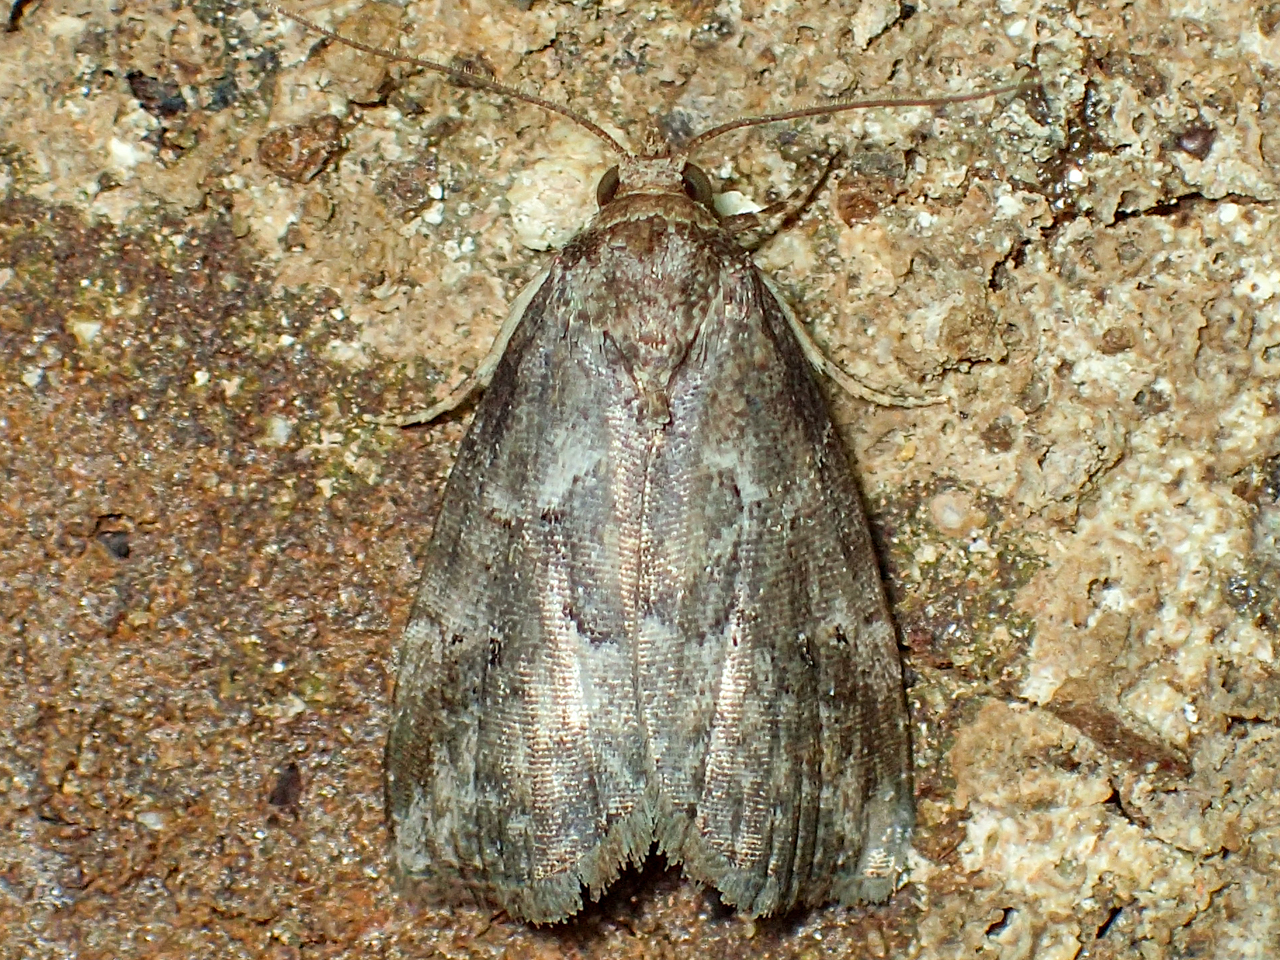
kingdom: Animalia
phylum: Arthropoda
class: Insecta
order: Lepidoptera
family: Erebidae
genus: Hyperstrotia
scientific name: Hyperstrotia nana
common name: White-lined graylet
